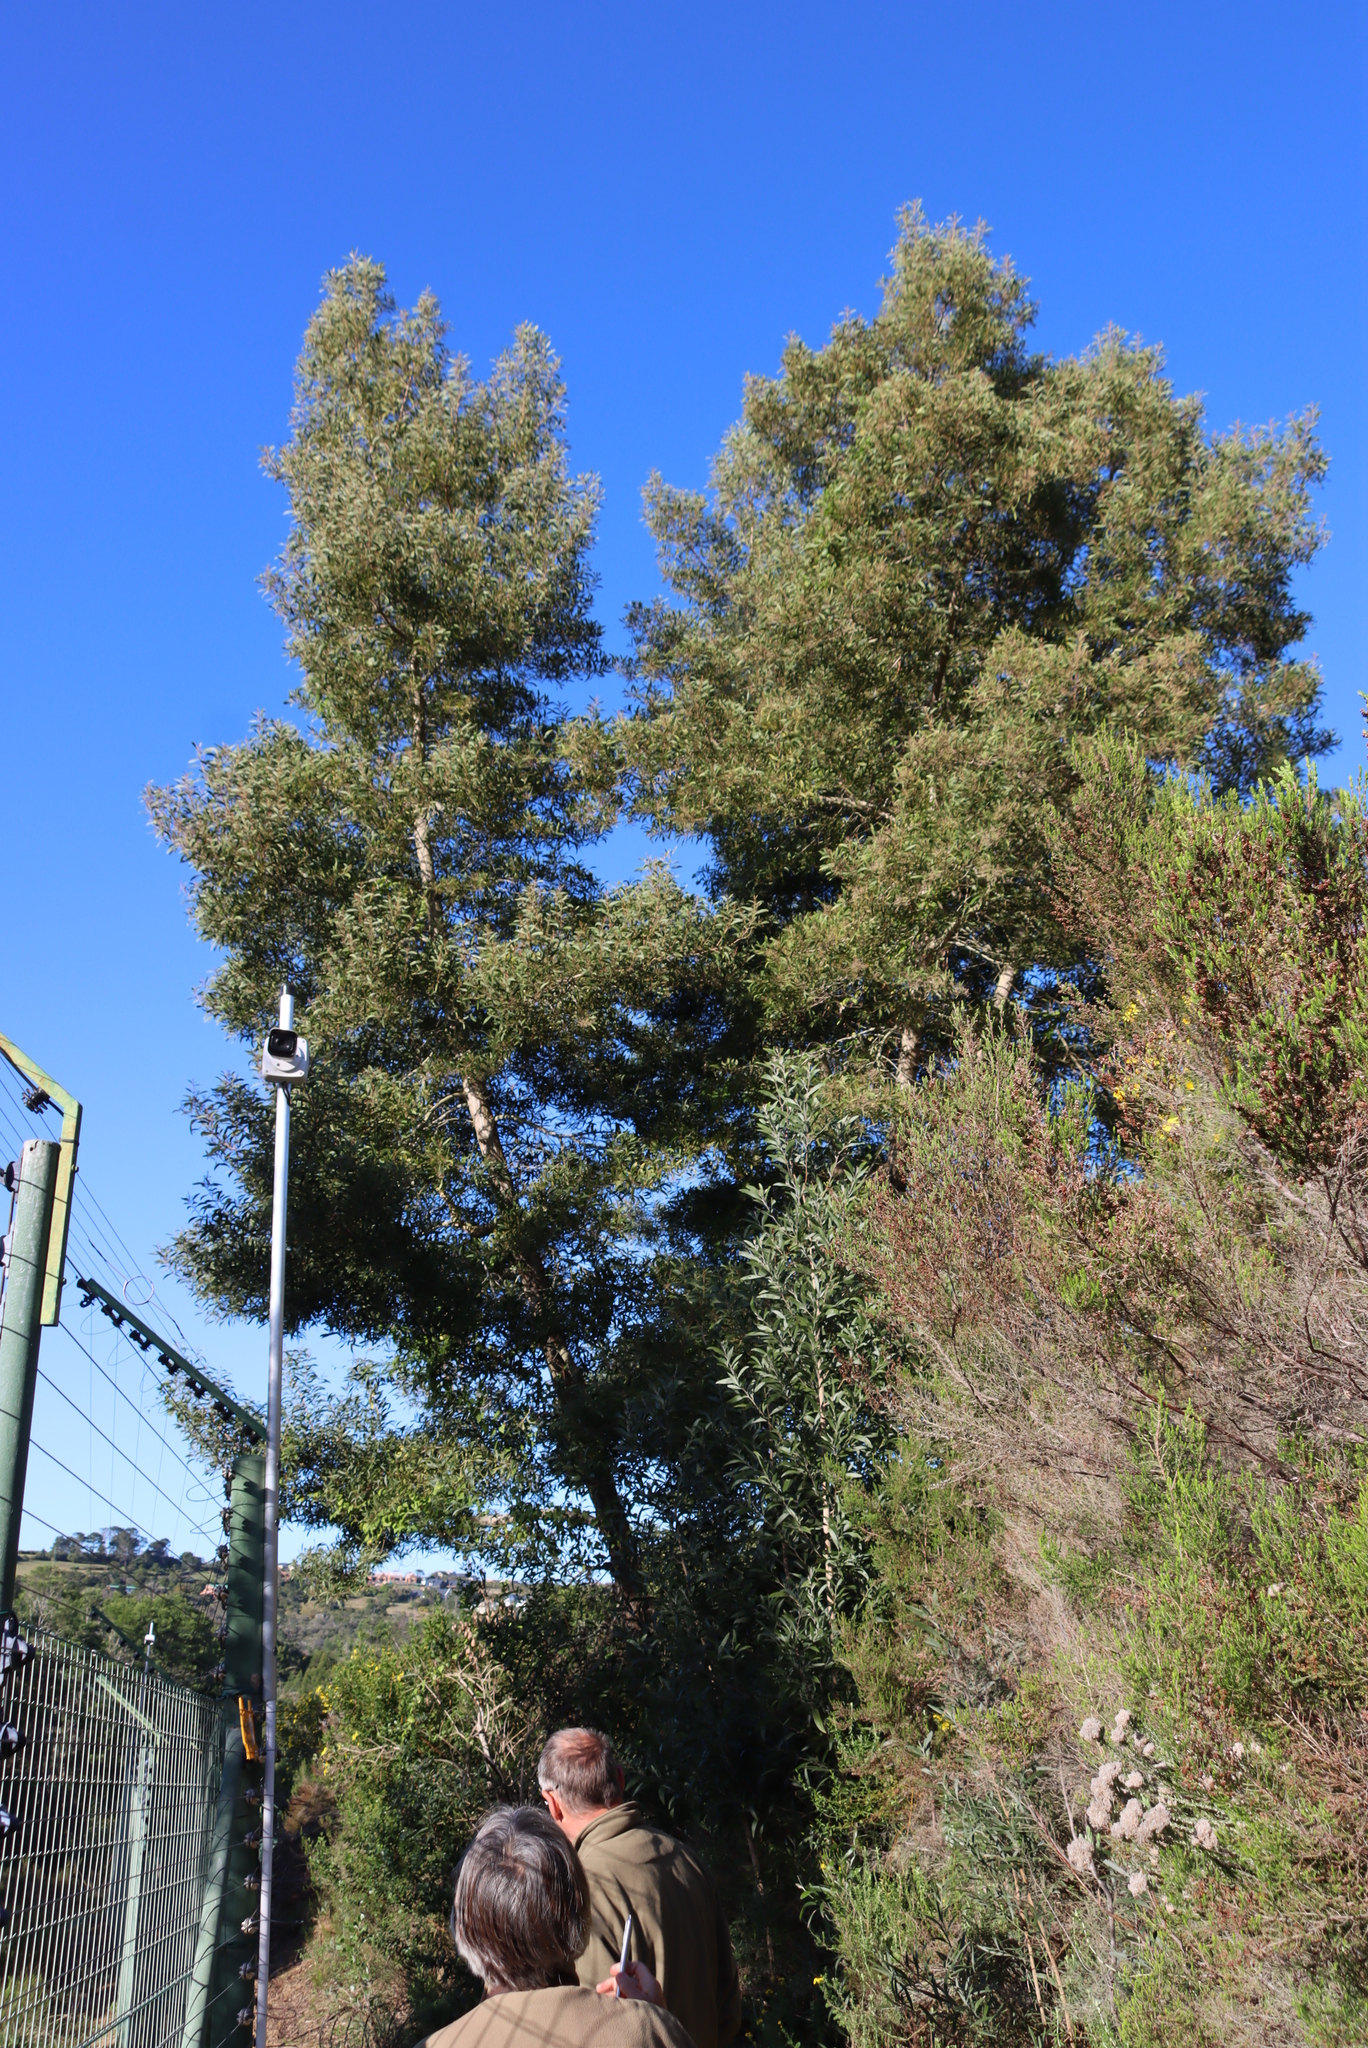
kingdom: Plantae
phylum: Tracheophyta
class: Magnoliopsida
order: Fabales
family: Fabaceae
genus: Acacia
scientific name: Acacia melanoxylon
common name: Blackwood
